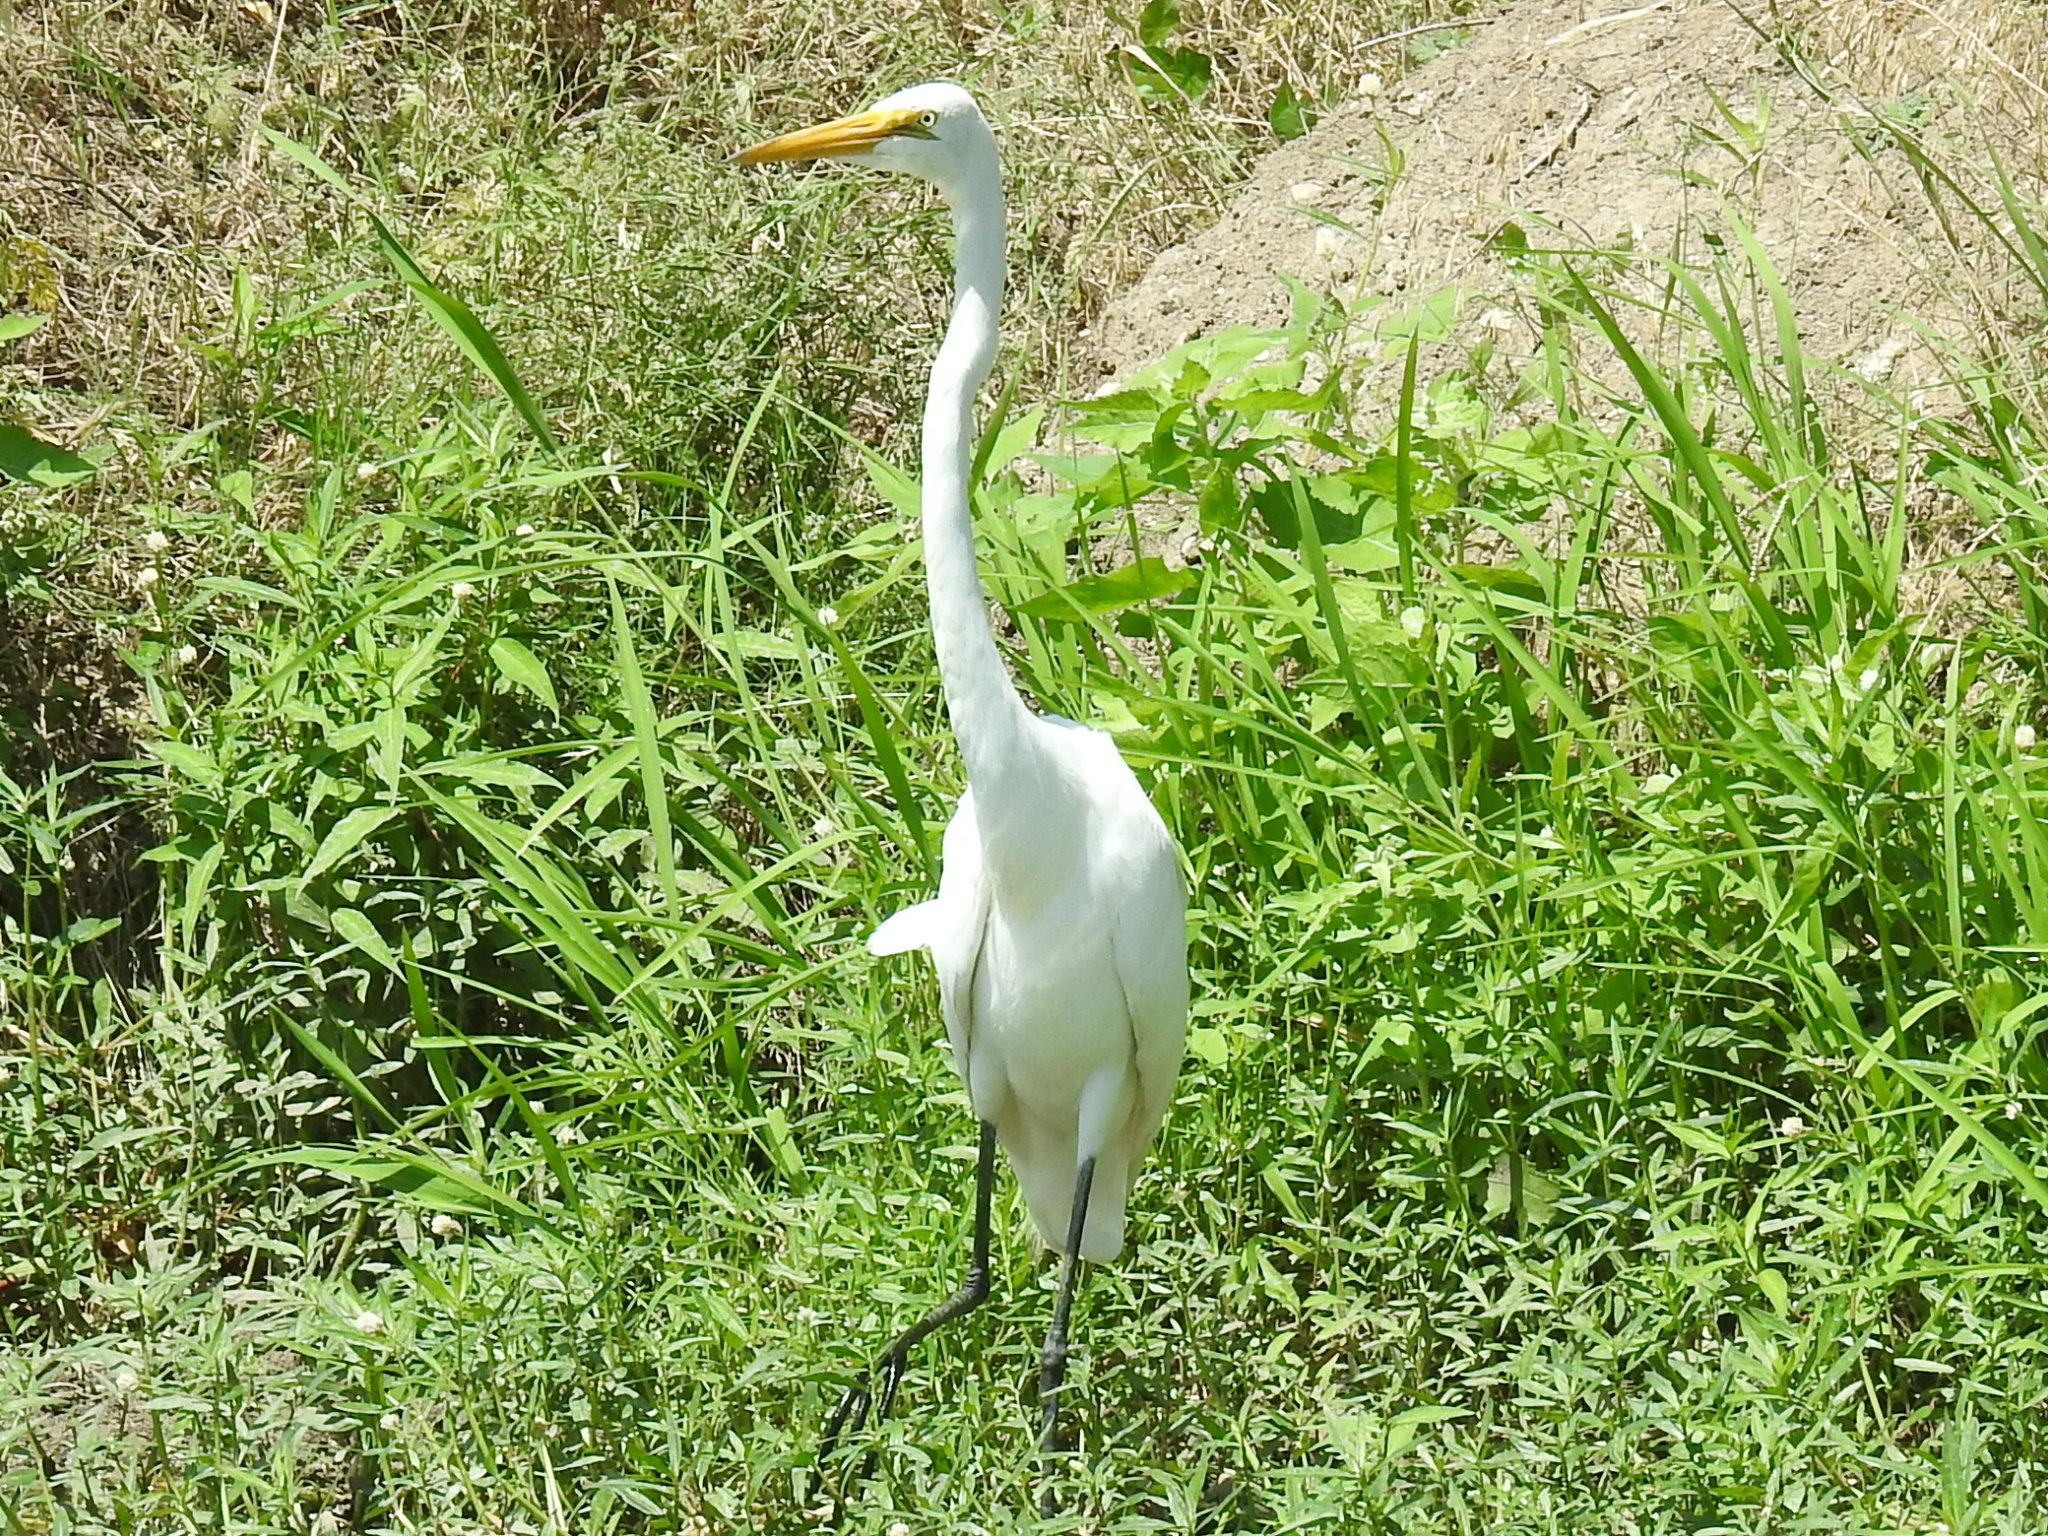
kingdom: Animalia
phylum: Chordata
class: Aves
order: Pelecaniformes
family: Ardeidae
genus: Ardea
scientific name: Ardea alba
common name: Great egret
